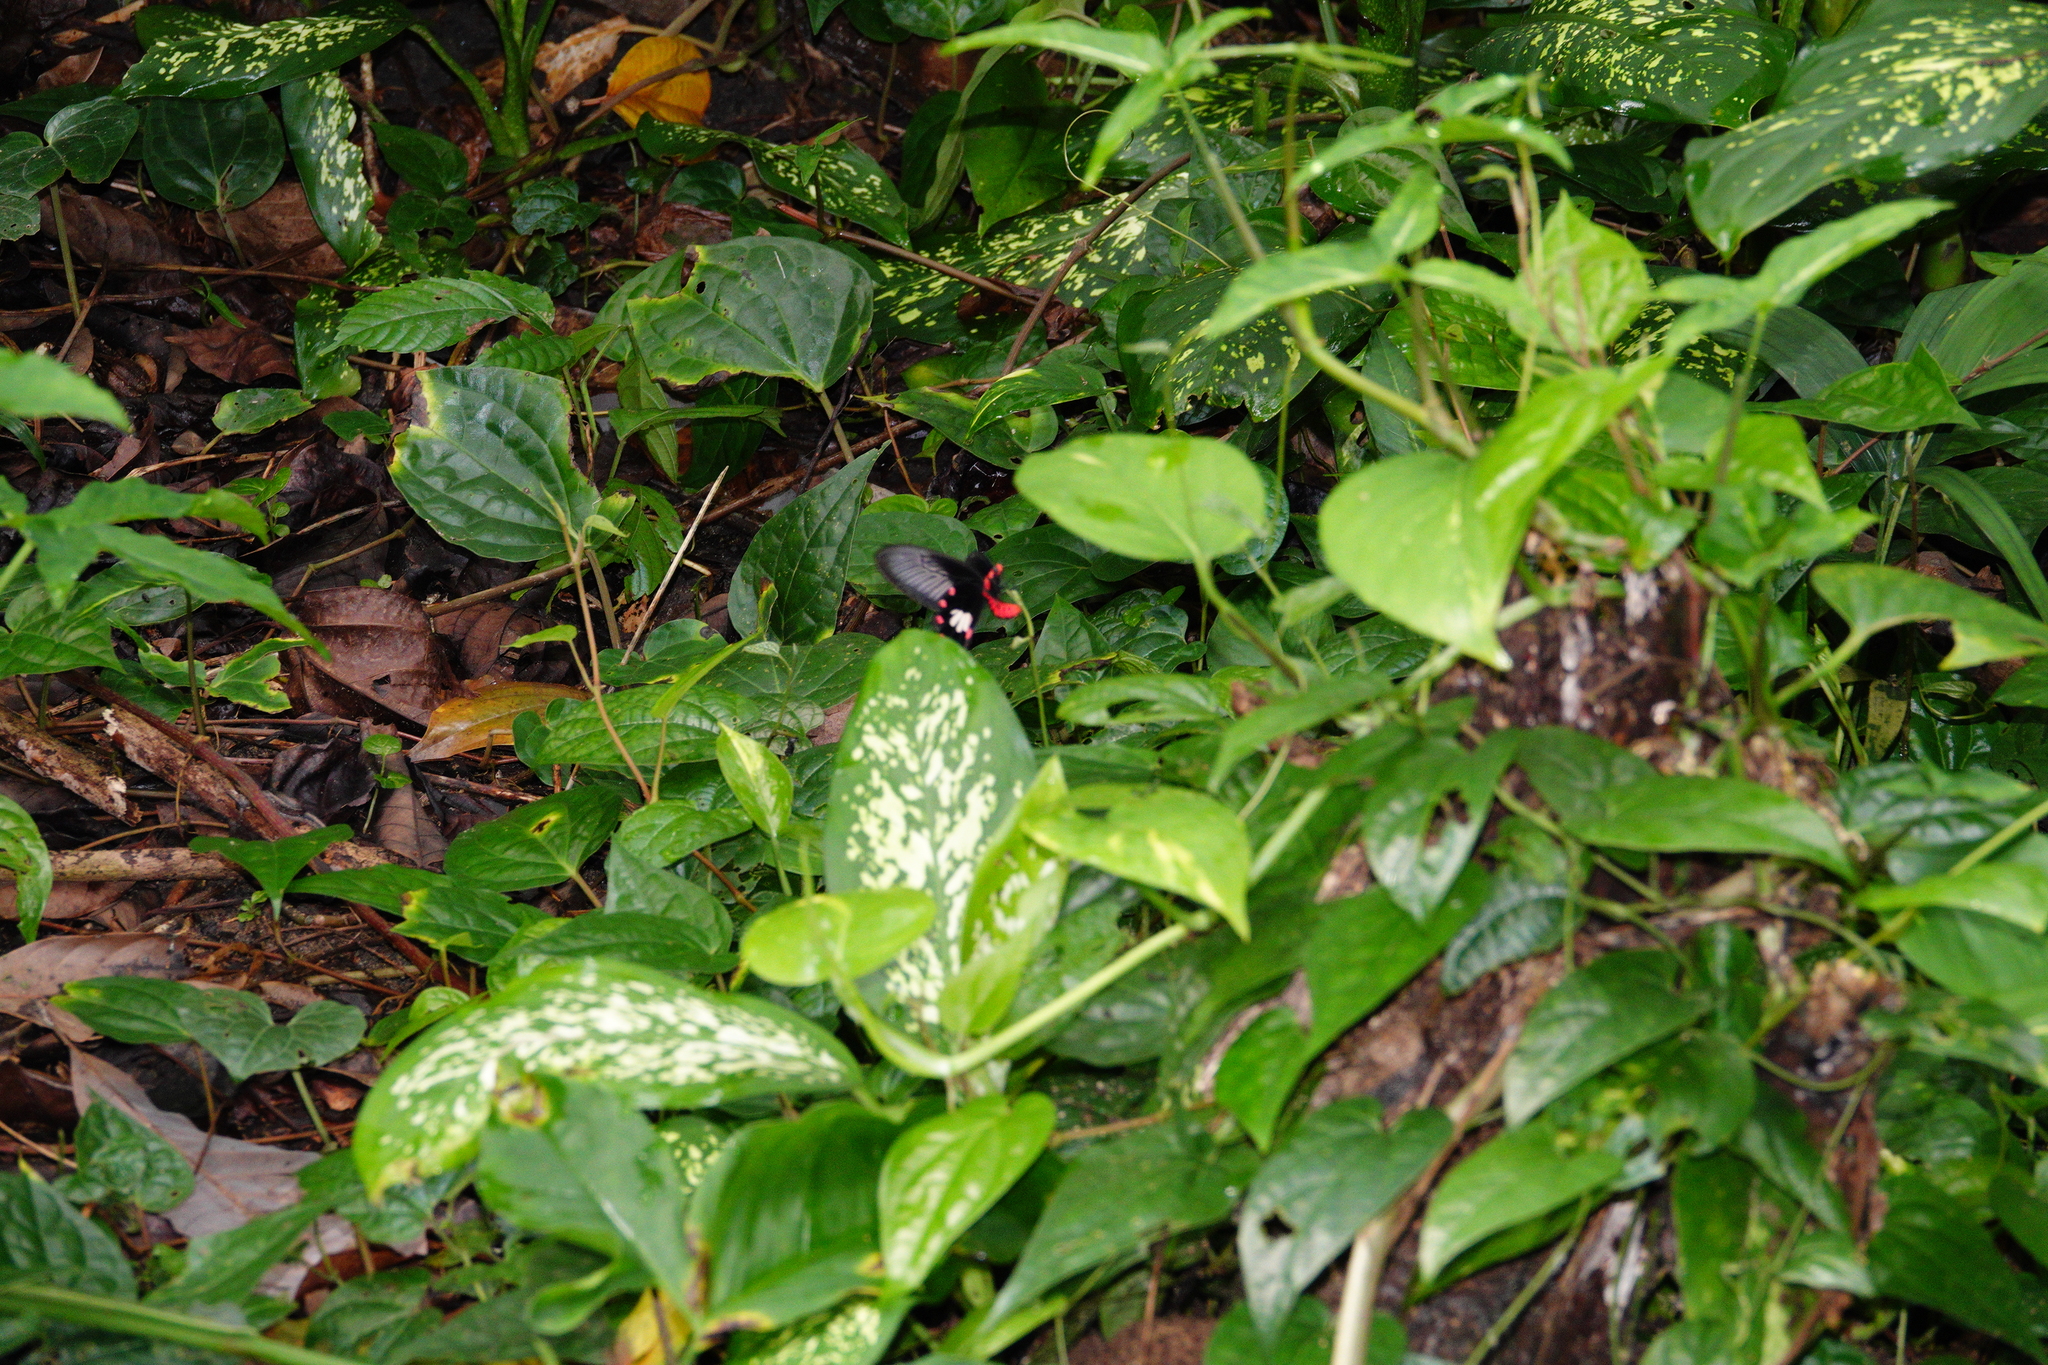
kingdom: Animalia
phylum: Arthropoda
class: Insecta
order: Lepidoptera
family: Papilionidae
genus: Pachliopta
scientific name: Pachliopta aristolochiae
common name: Common rose
